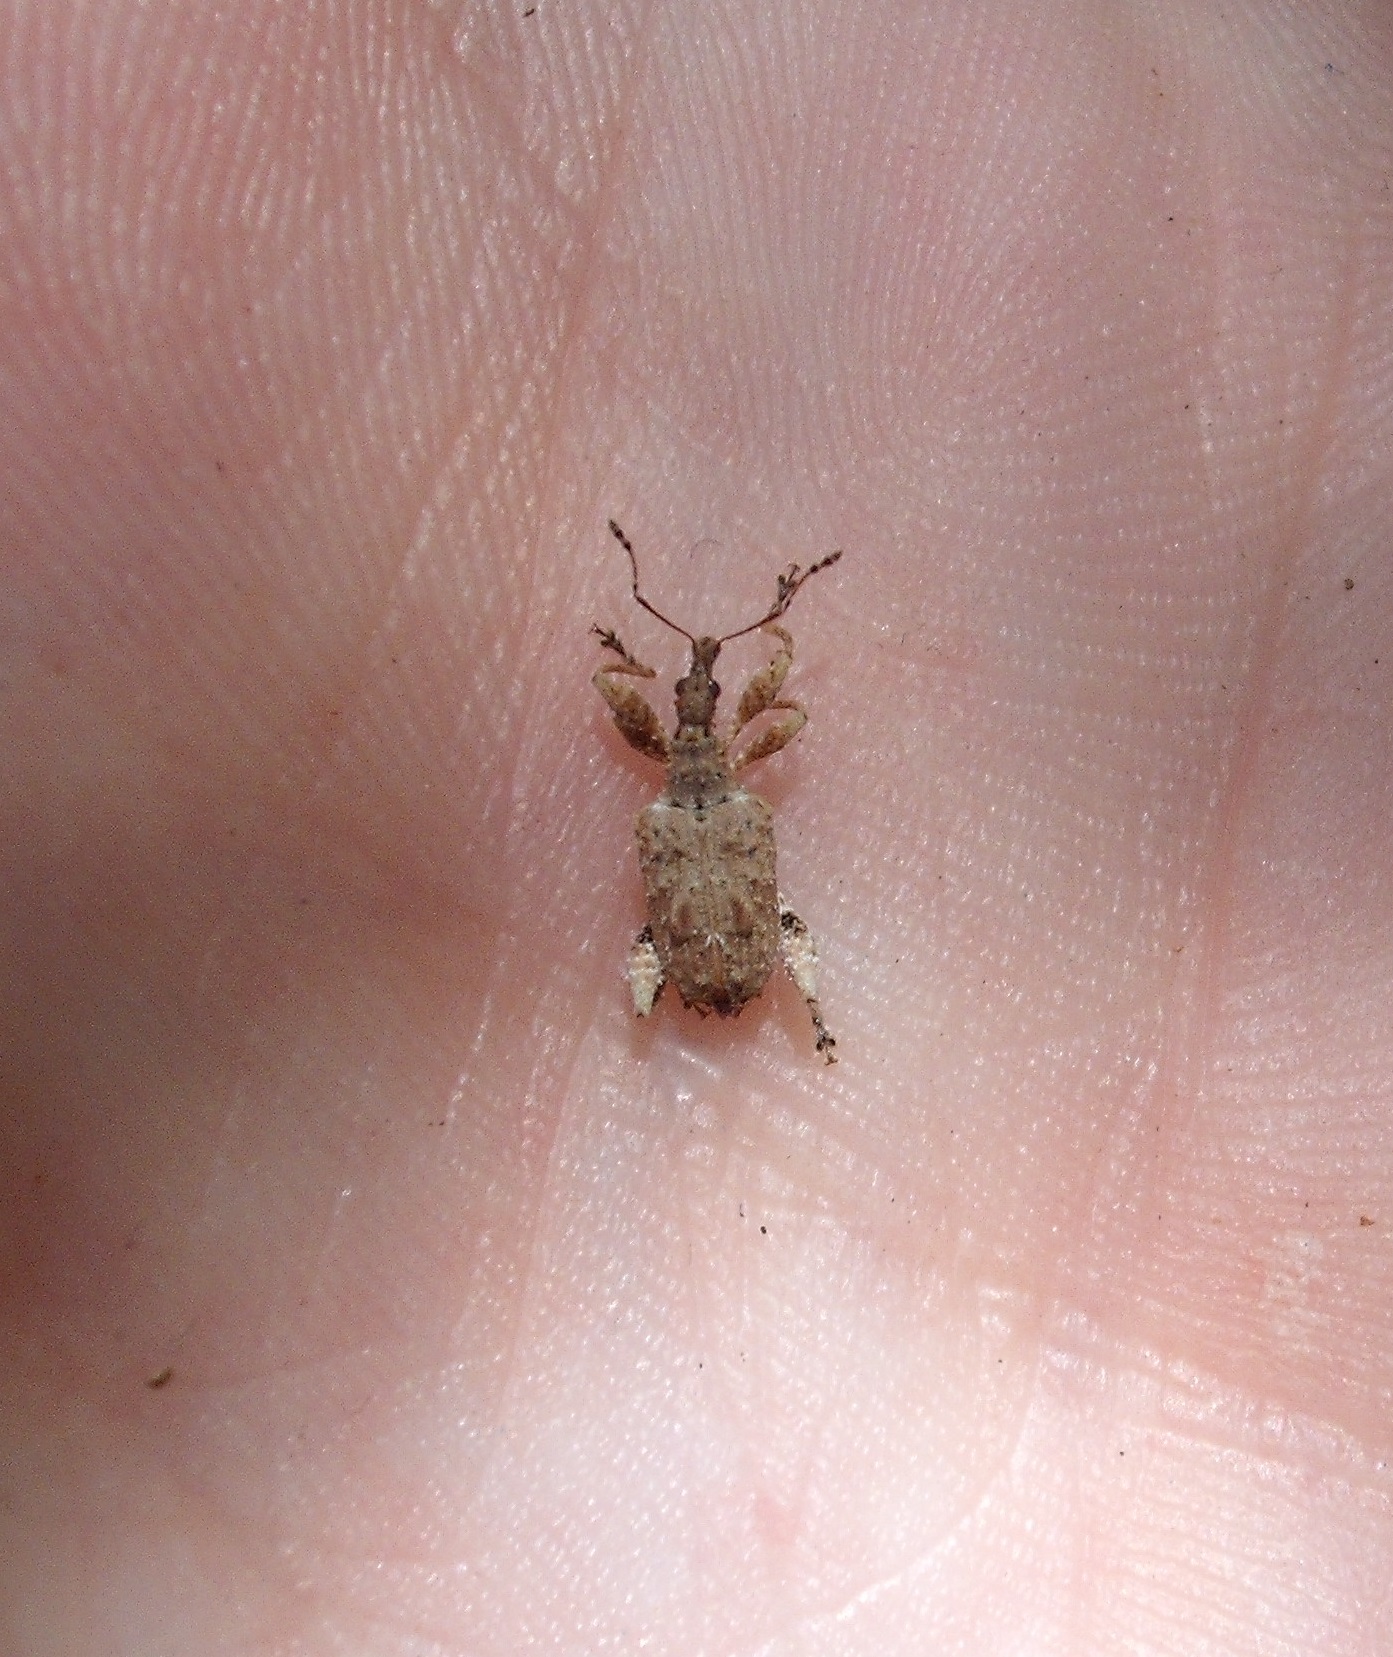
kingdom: Animalia
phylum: Arthropoda
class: Insecta
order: Coleoptera
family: Curculionidae
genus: Stephanorhynchus
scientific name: Stephanorhynchus curvipes
